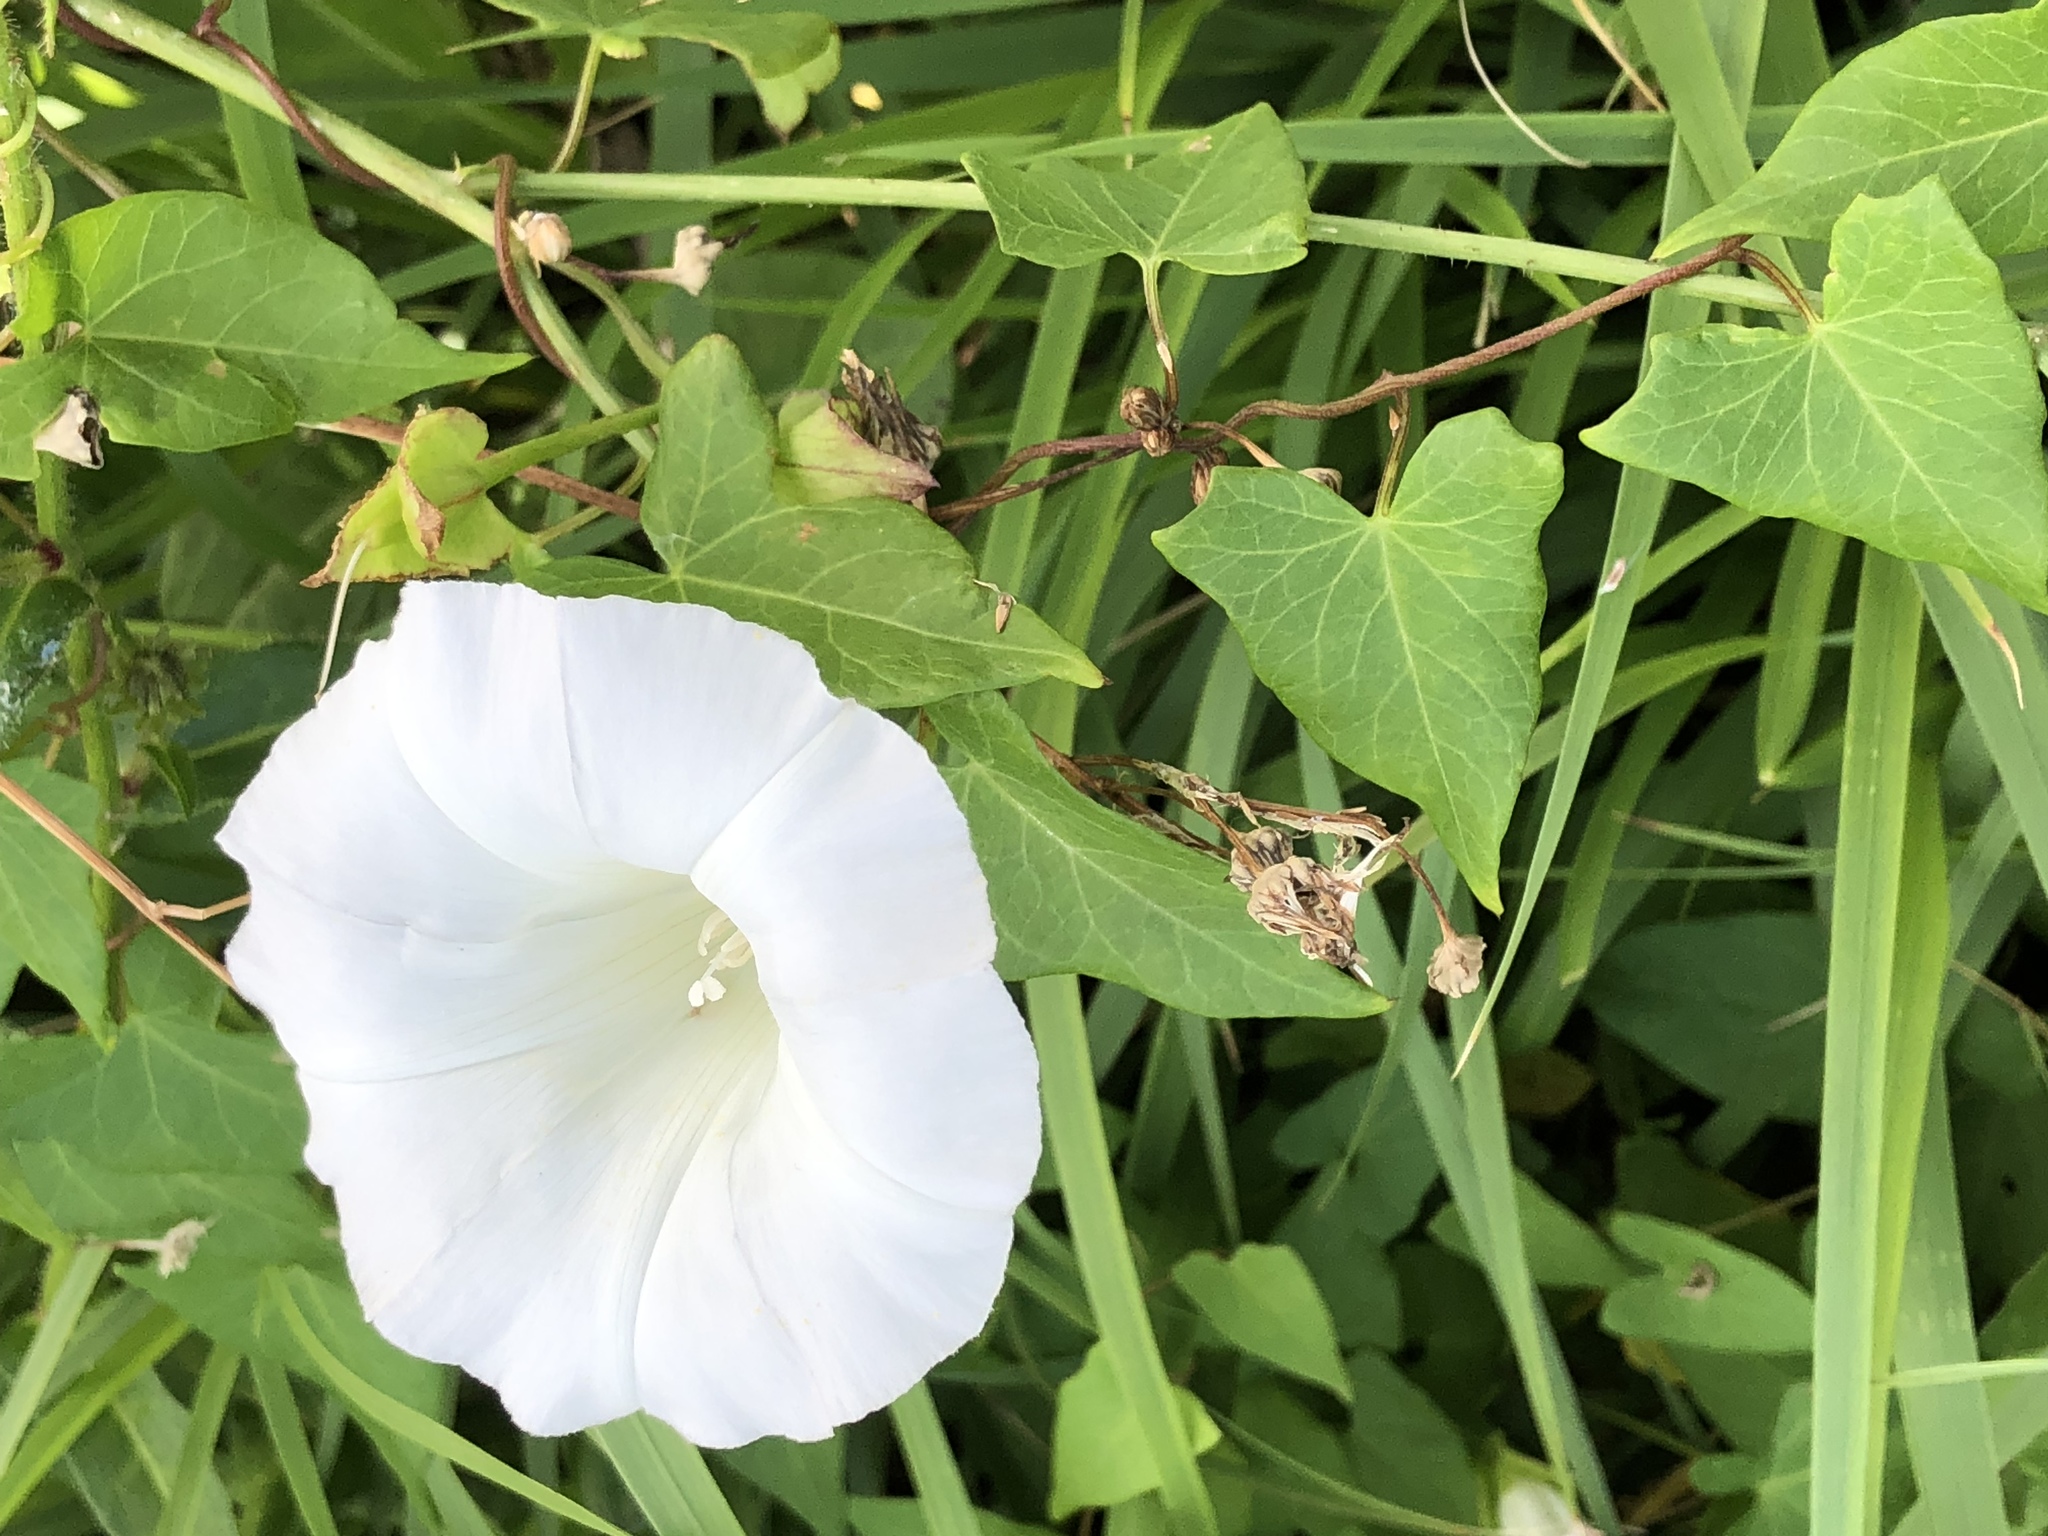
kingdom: Plantae
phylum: Tracheophyta
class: Magnoliopsida
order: Solanales
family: Convolvulaceae
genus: Calystegia
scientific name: Calystegia sepium
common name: Hedge bindweed
